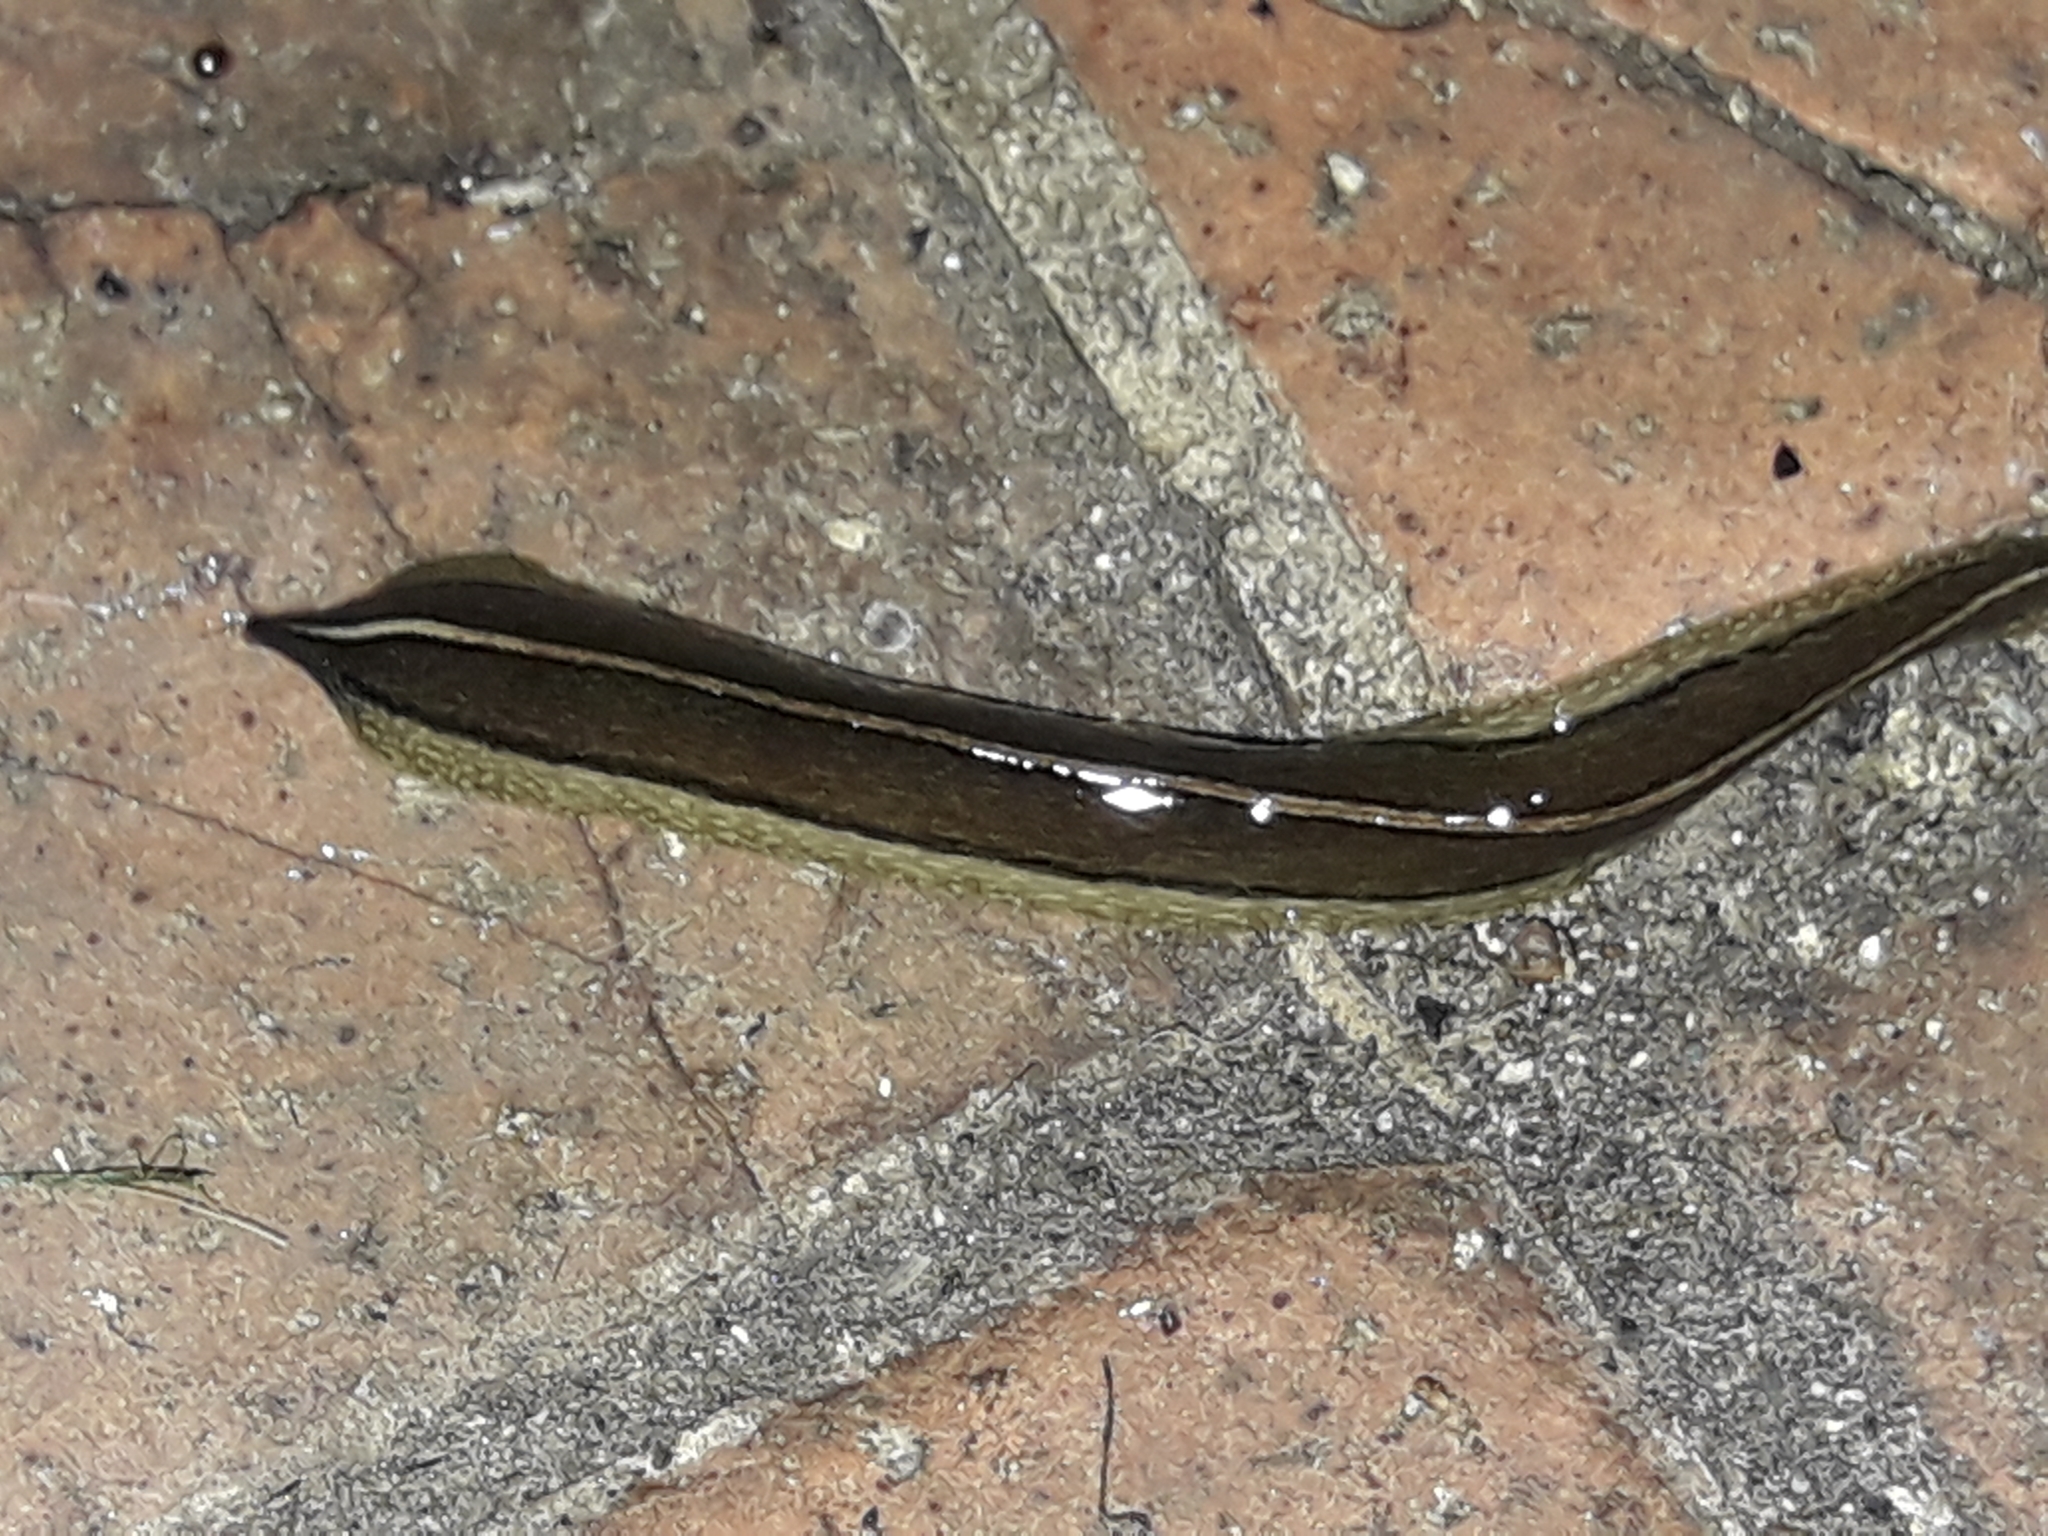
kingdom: Animalia
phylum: Platyhelminthes
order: Tricladida
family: Geoplanidae
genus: Newzealandia
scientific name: Newzealandia graffii
